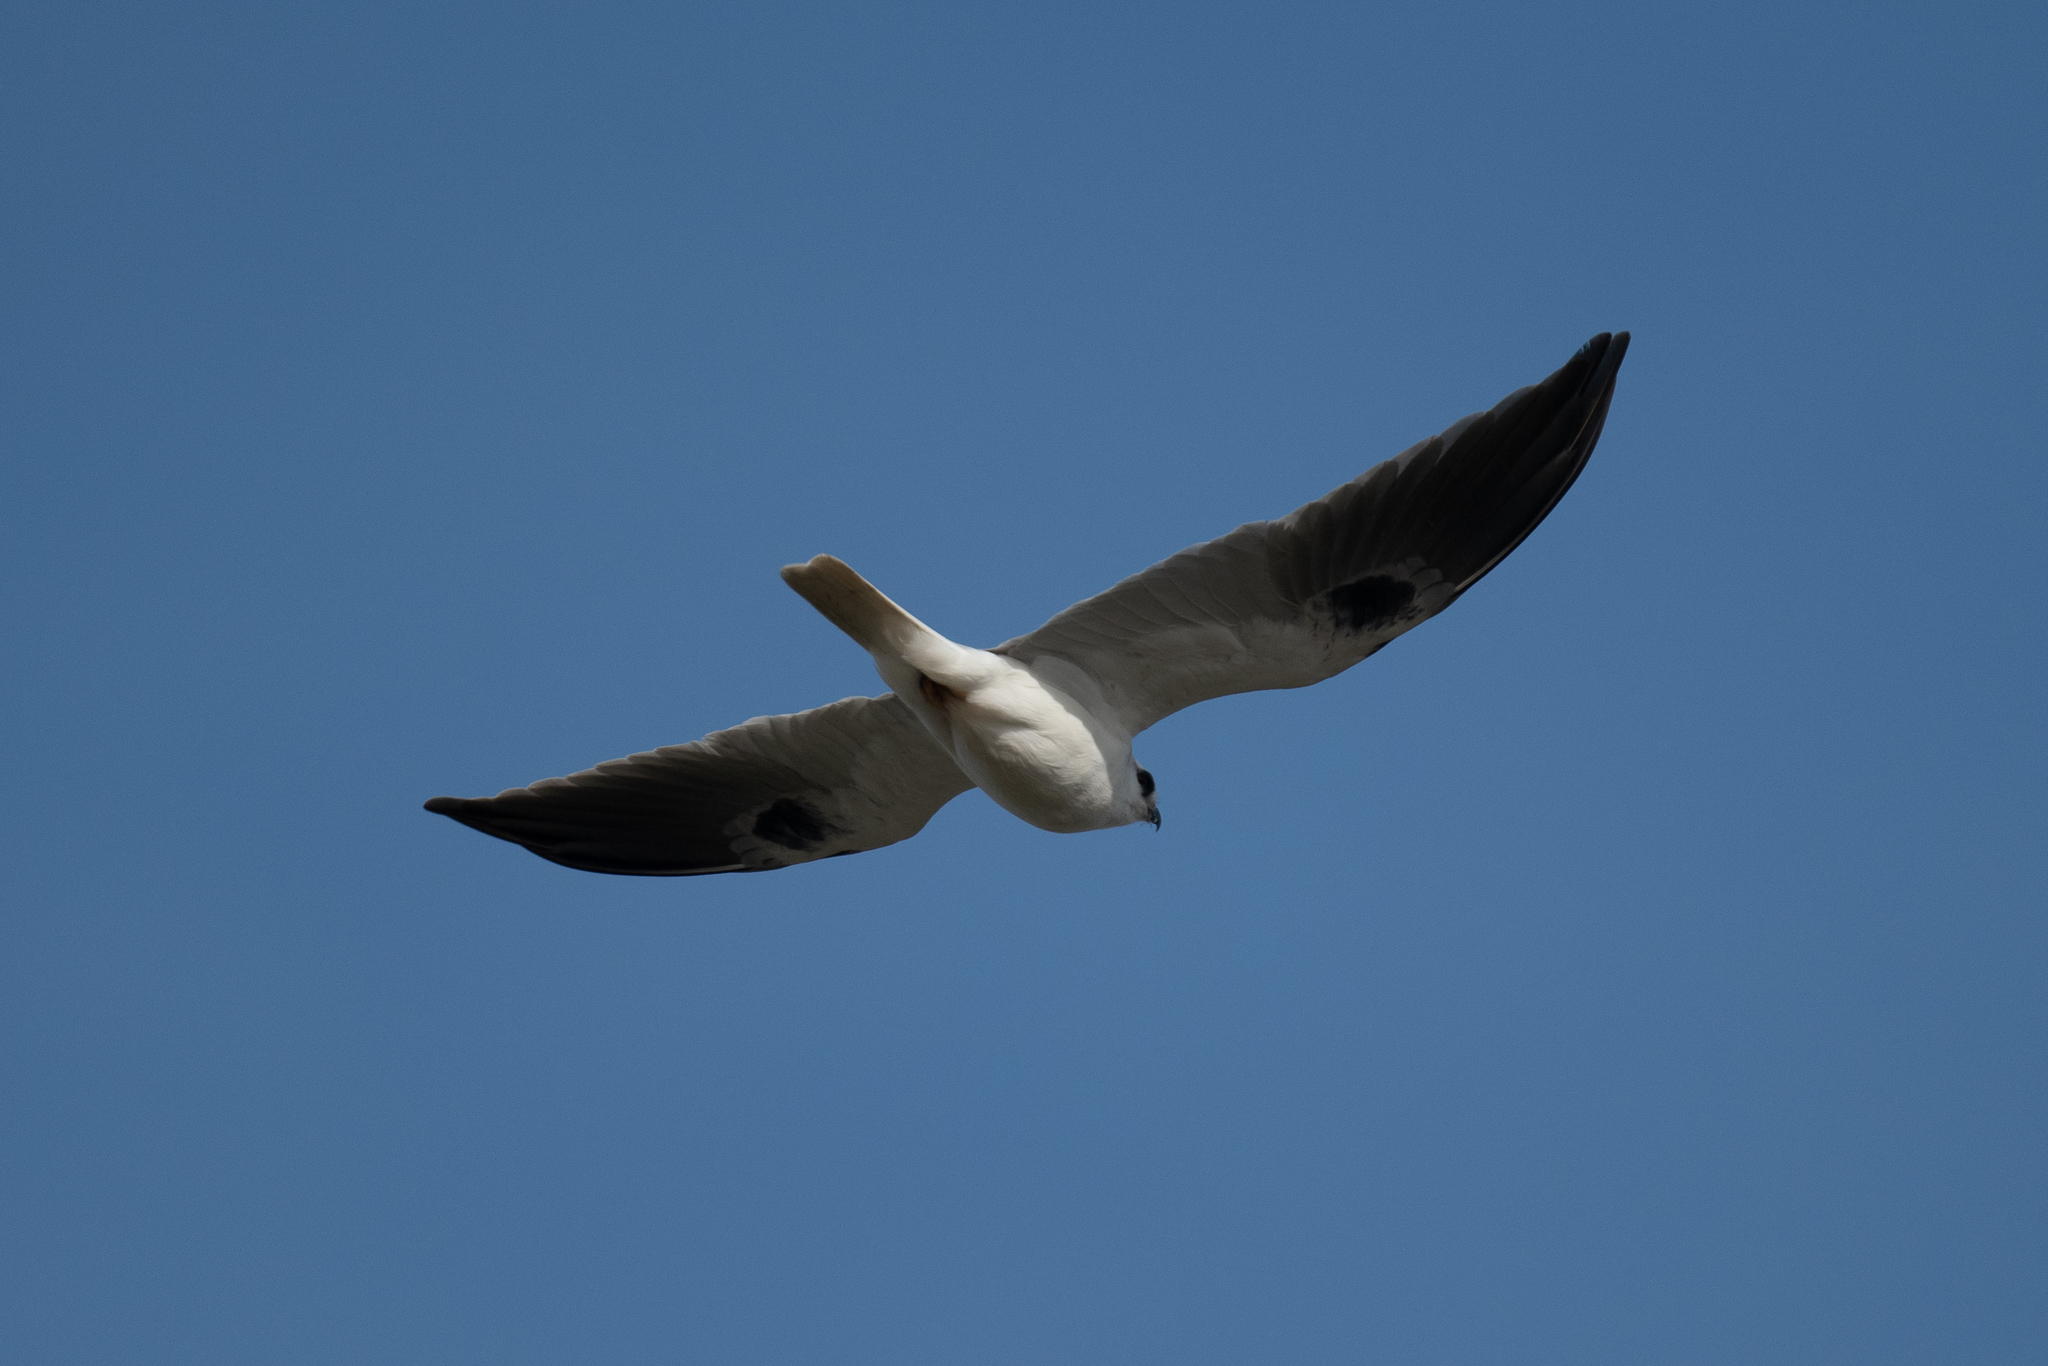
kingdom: Animalia
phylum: Chordata
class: Aves
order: Accipitriformes
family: Accipitridae
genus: Elanus
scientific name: Elanus leucurus
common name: White-tailed kite
